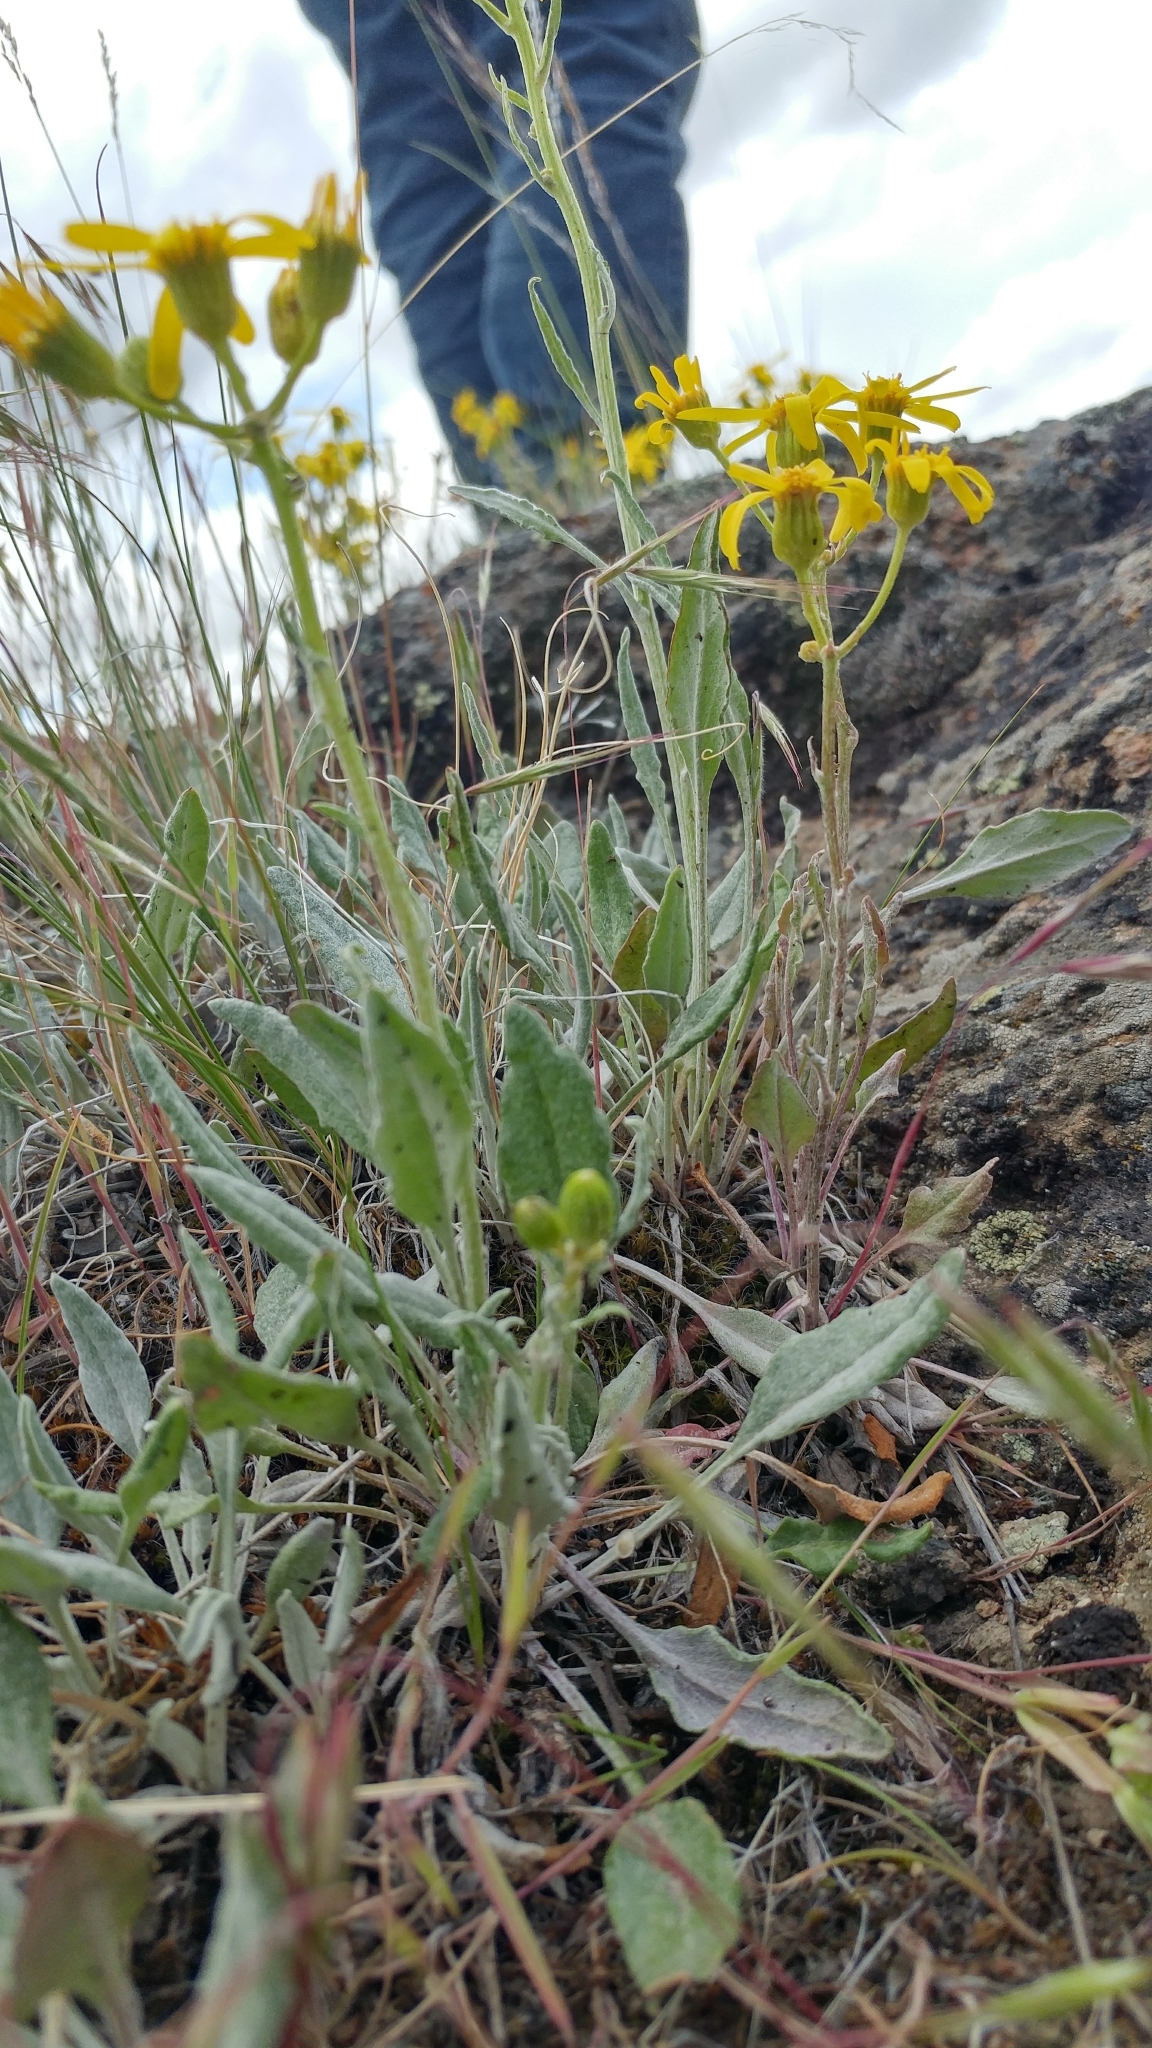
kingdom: Plantae
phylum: Tracheophyta
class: Magnoliopsida
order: Asterales
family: Asteraceae
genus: Packera
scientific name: Packera cana
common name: Woolly groundsel
